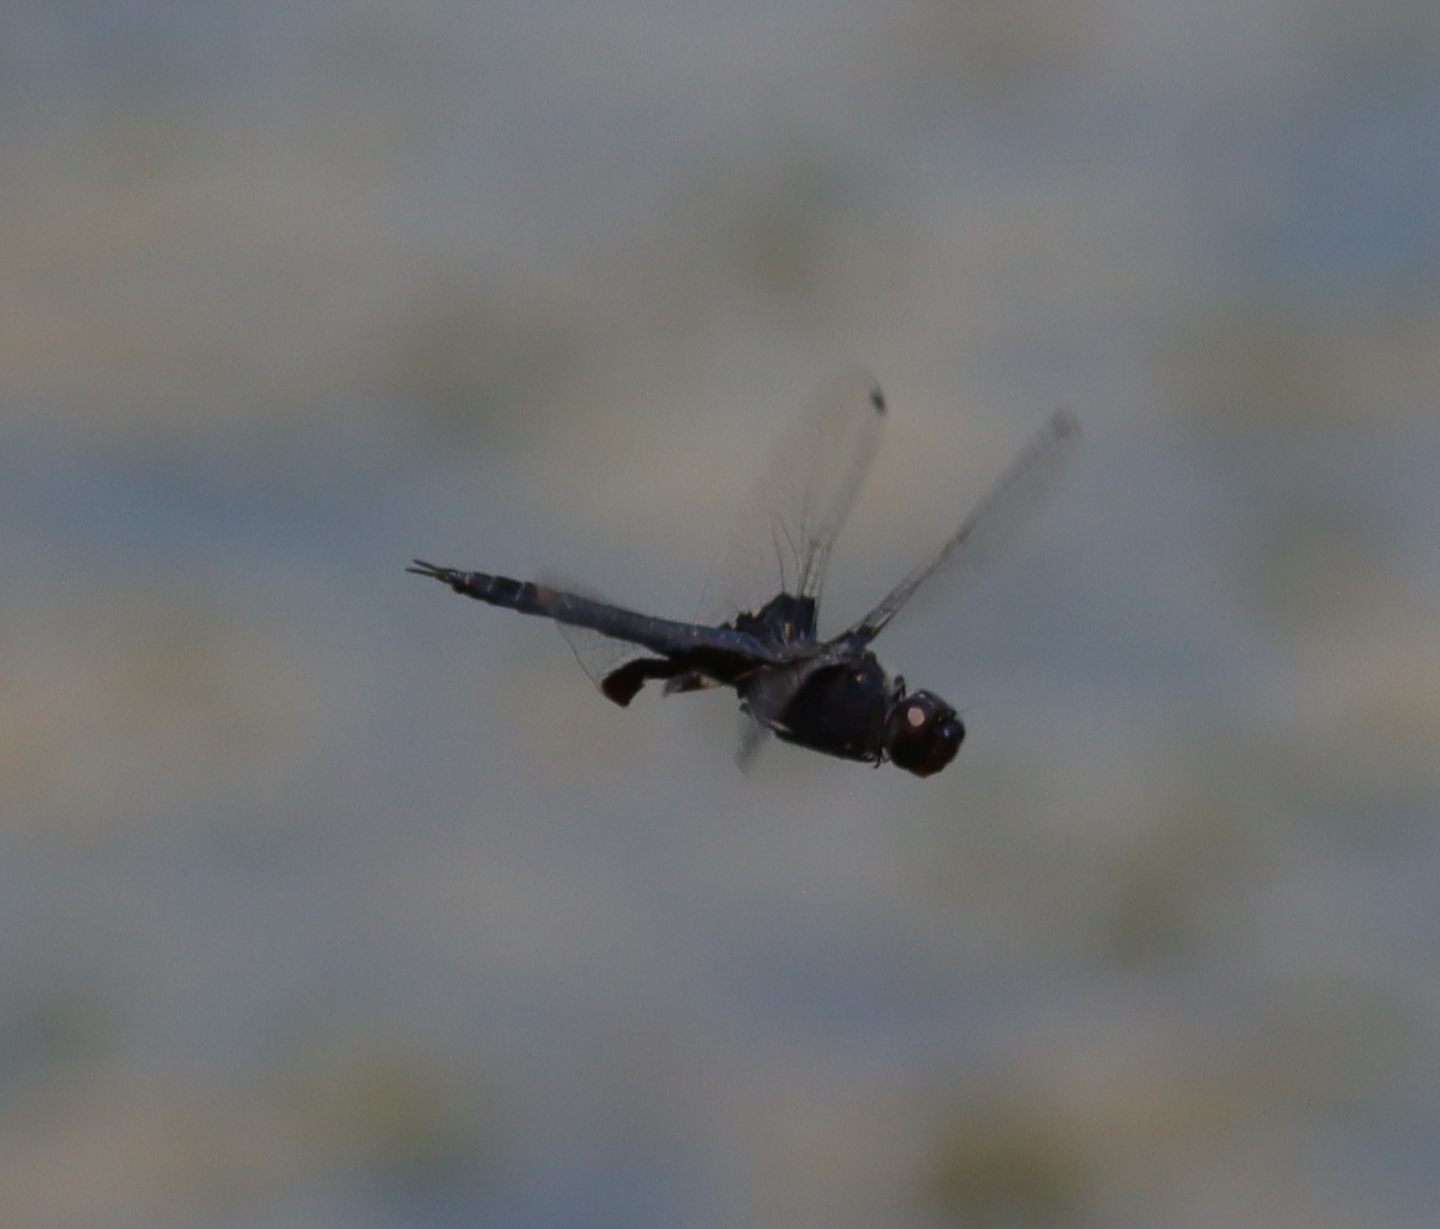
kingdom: Animalia
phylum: Arthropoda
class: Insecta
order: Odonata
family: Libellulidae
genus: Tramea
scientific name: Tramea lacerata
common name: Black saddlebags
